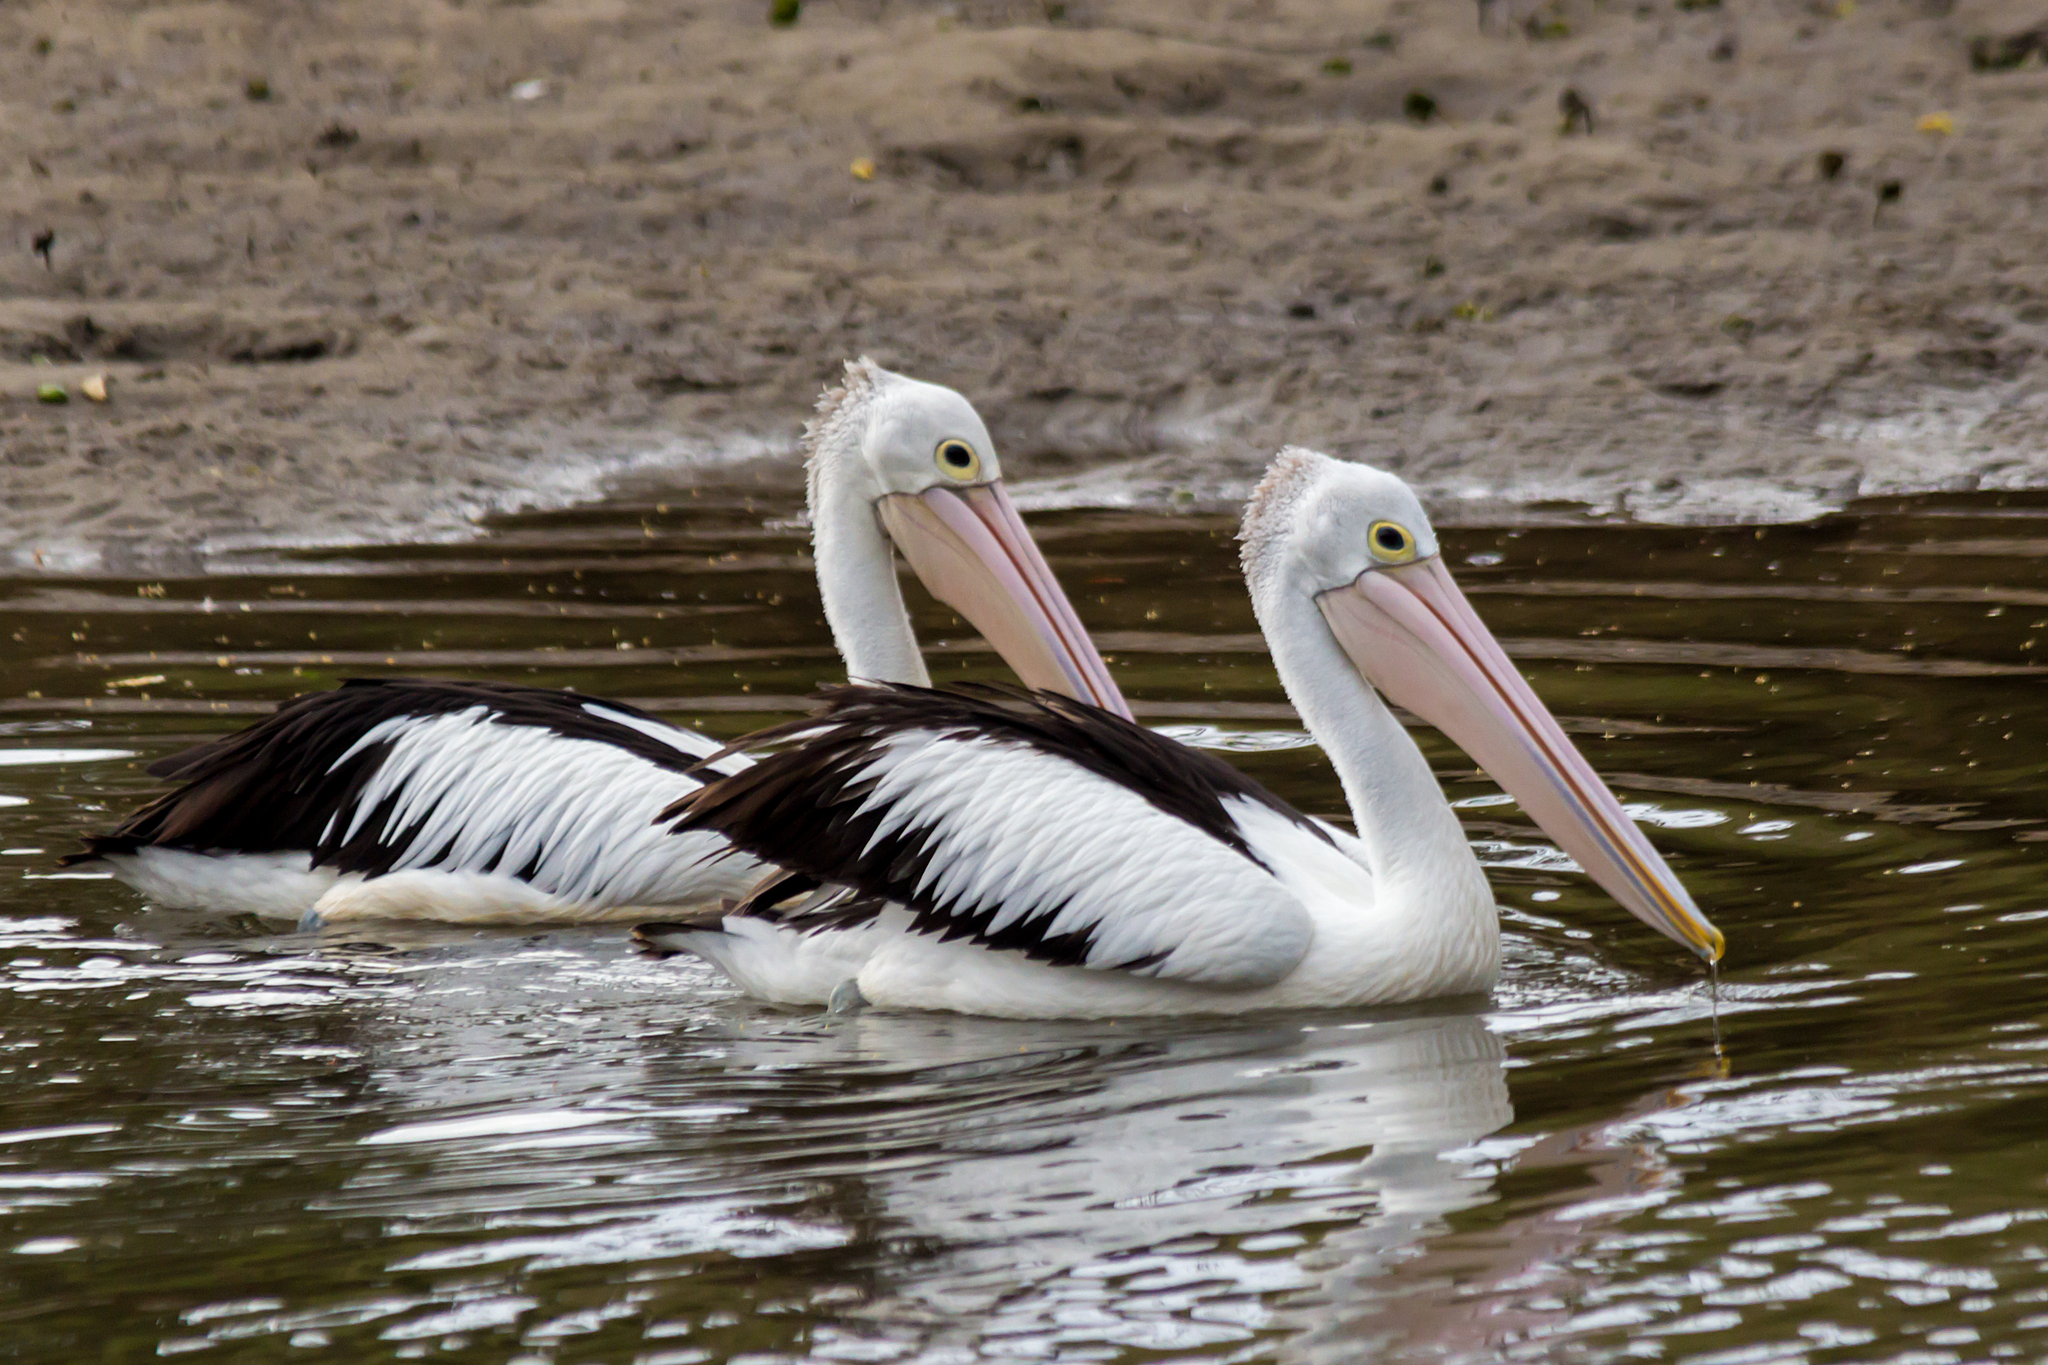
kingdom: Animalia
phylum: Chordata
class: Aves
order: Pelecaniformes
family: Pelecanidae
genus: Pelecanus
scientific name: Pelecanus conspicillatus
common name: Australian pelican
